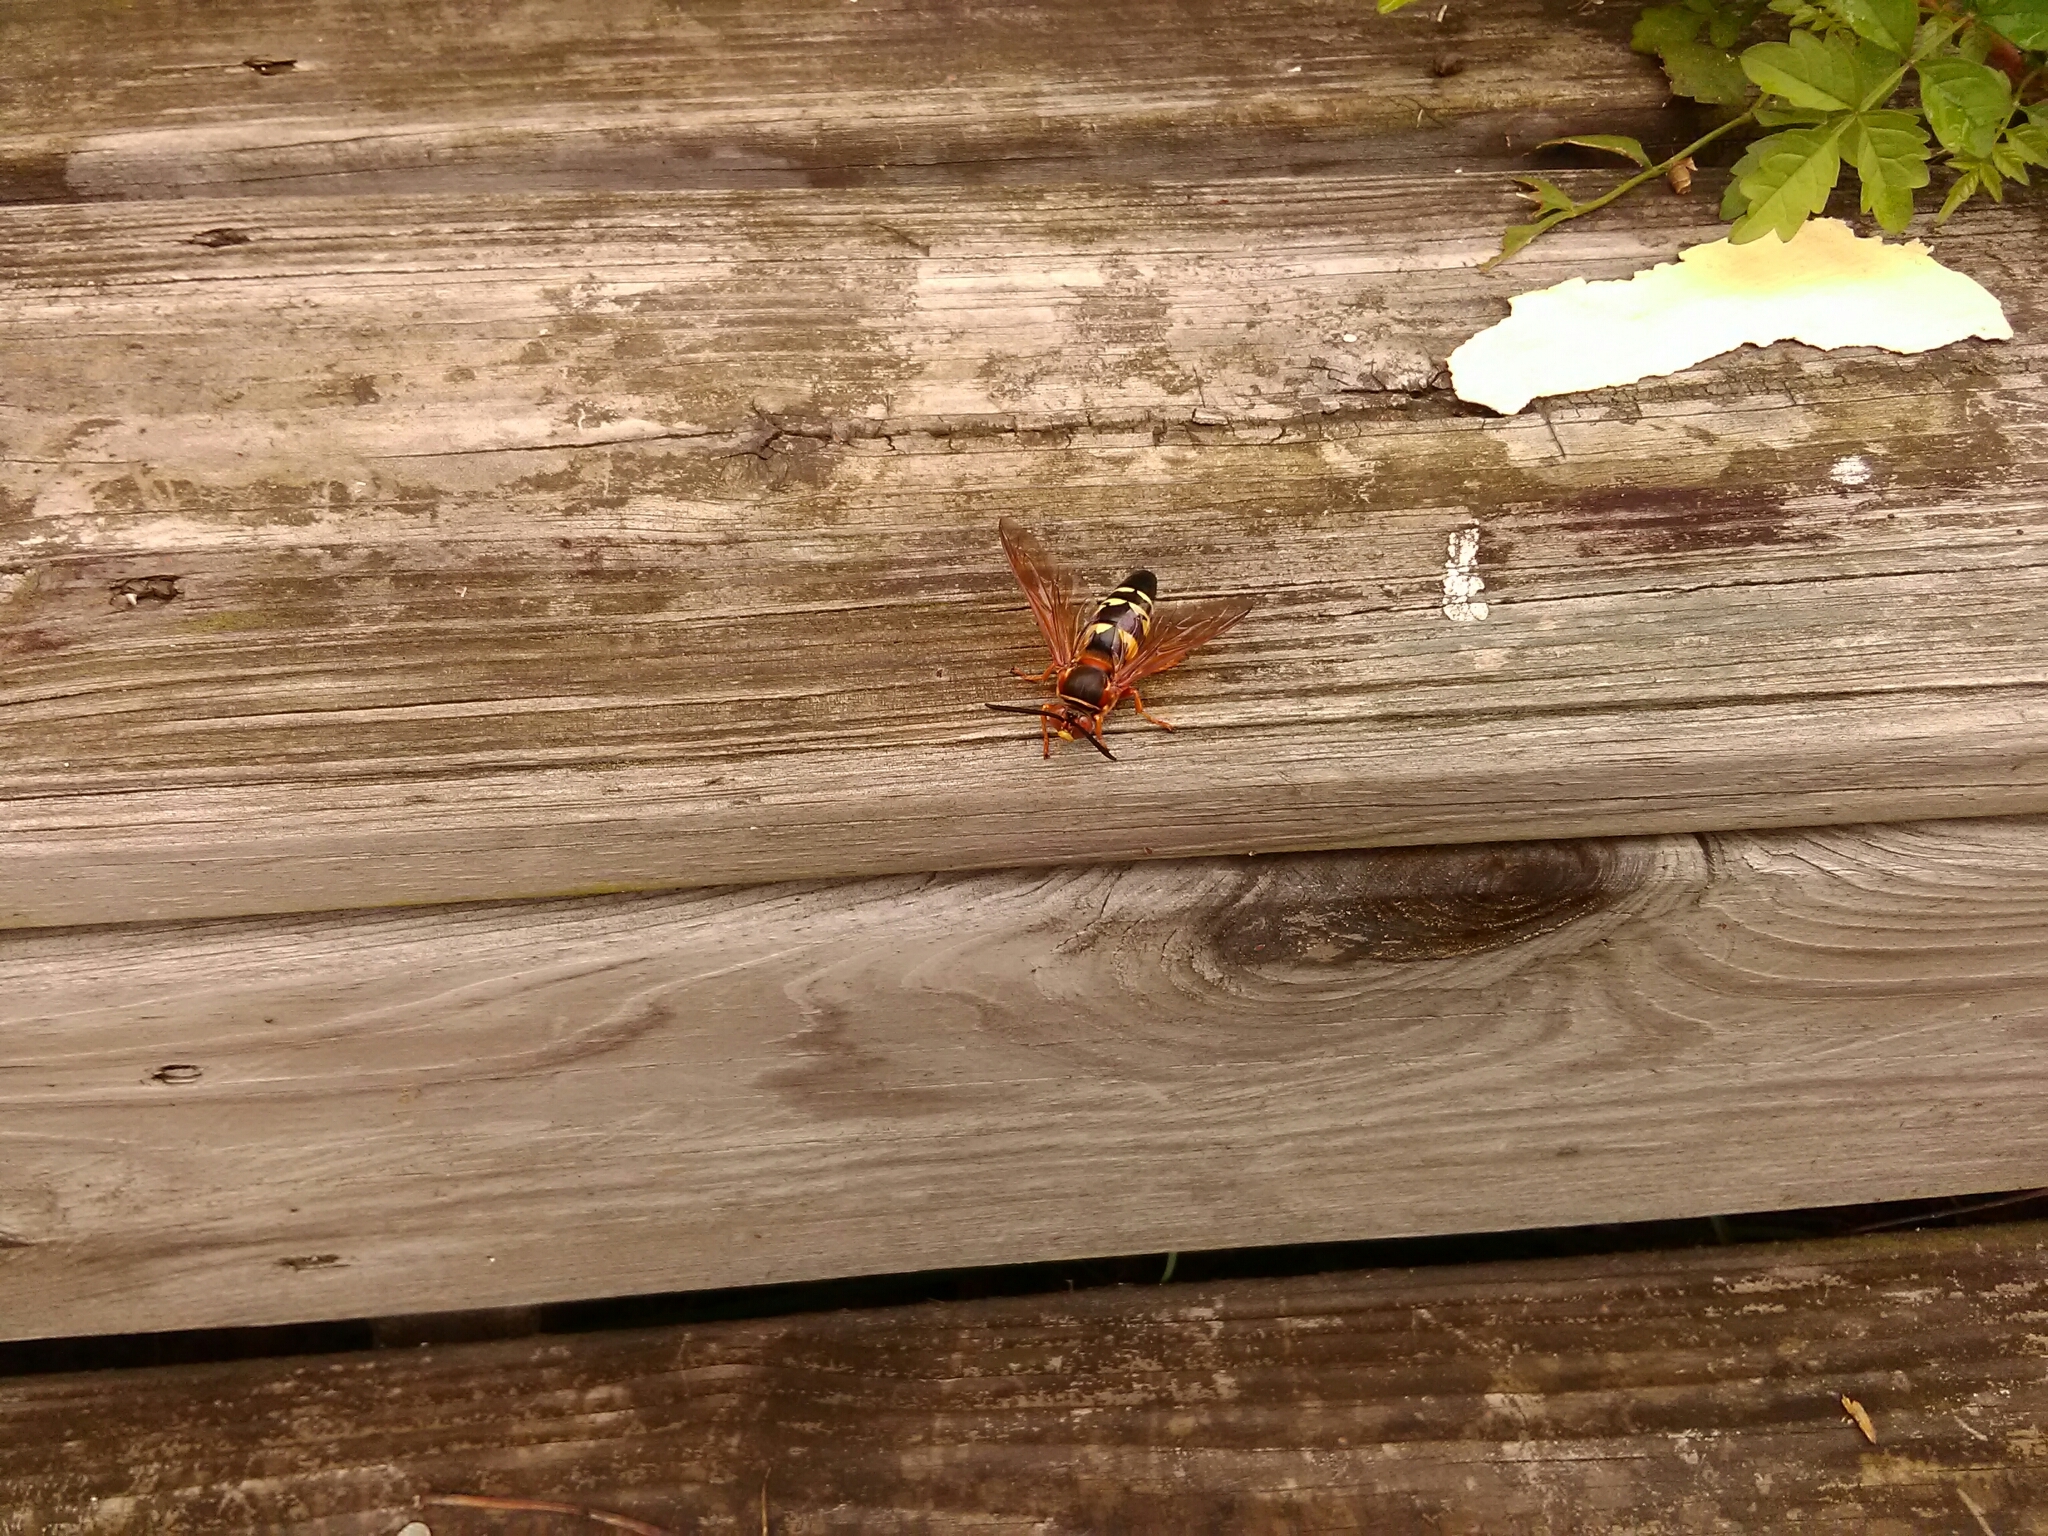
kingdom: Animalia
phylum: Arthropoda
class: Insecta
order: Hymenoptera
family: Crabronidae
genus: Sphecius
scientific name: Sphecius speciosus
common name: Cicada killer
